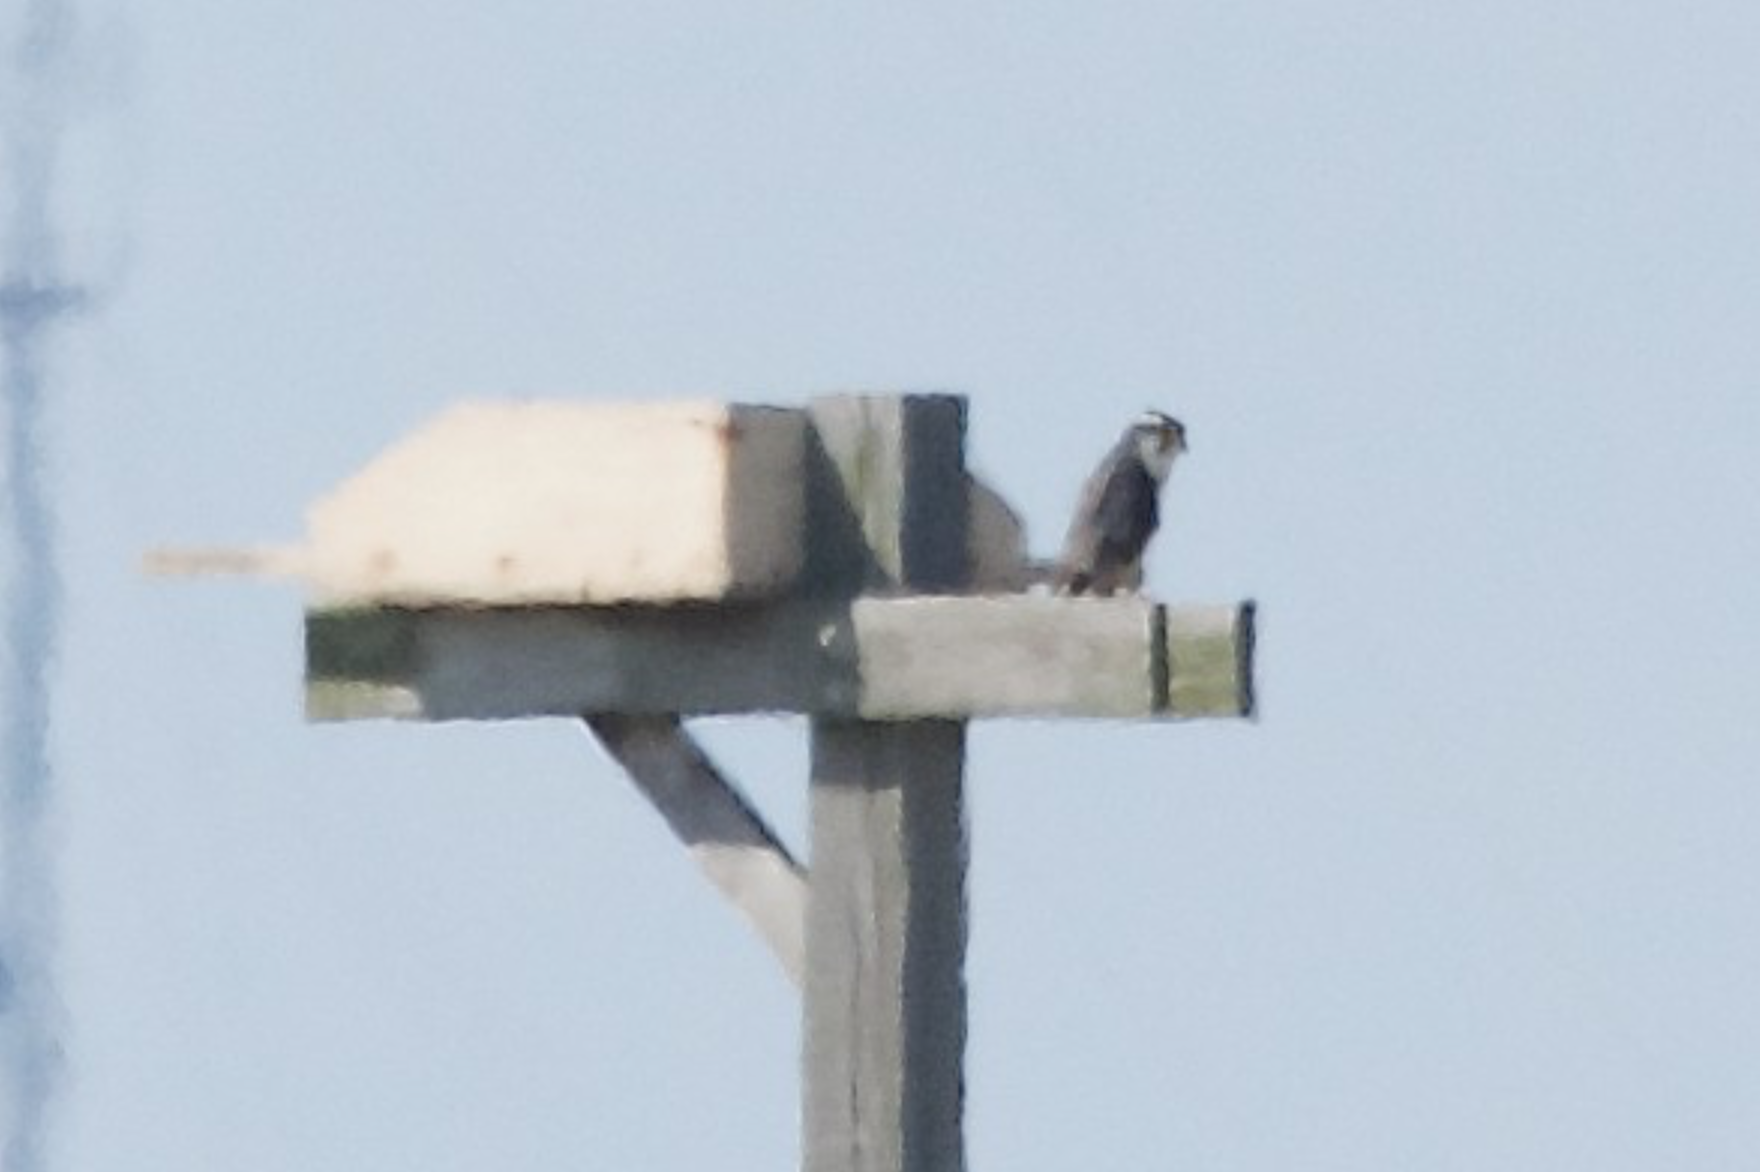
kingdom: Animalia
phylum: Chordata
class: Aves
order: Falconiformes
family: Falconidae
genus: Falco
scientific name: Falco femoralis
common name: Aplomado falcon
